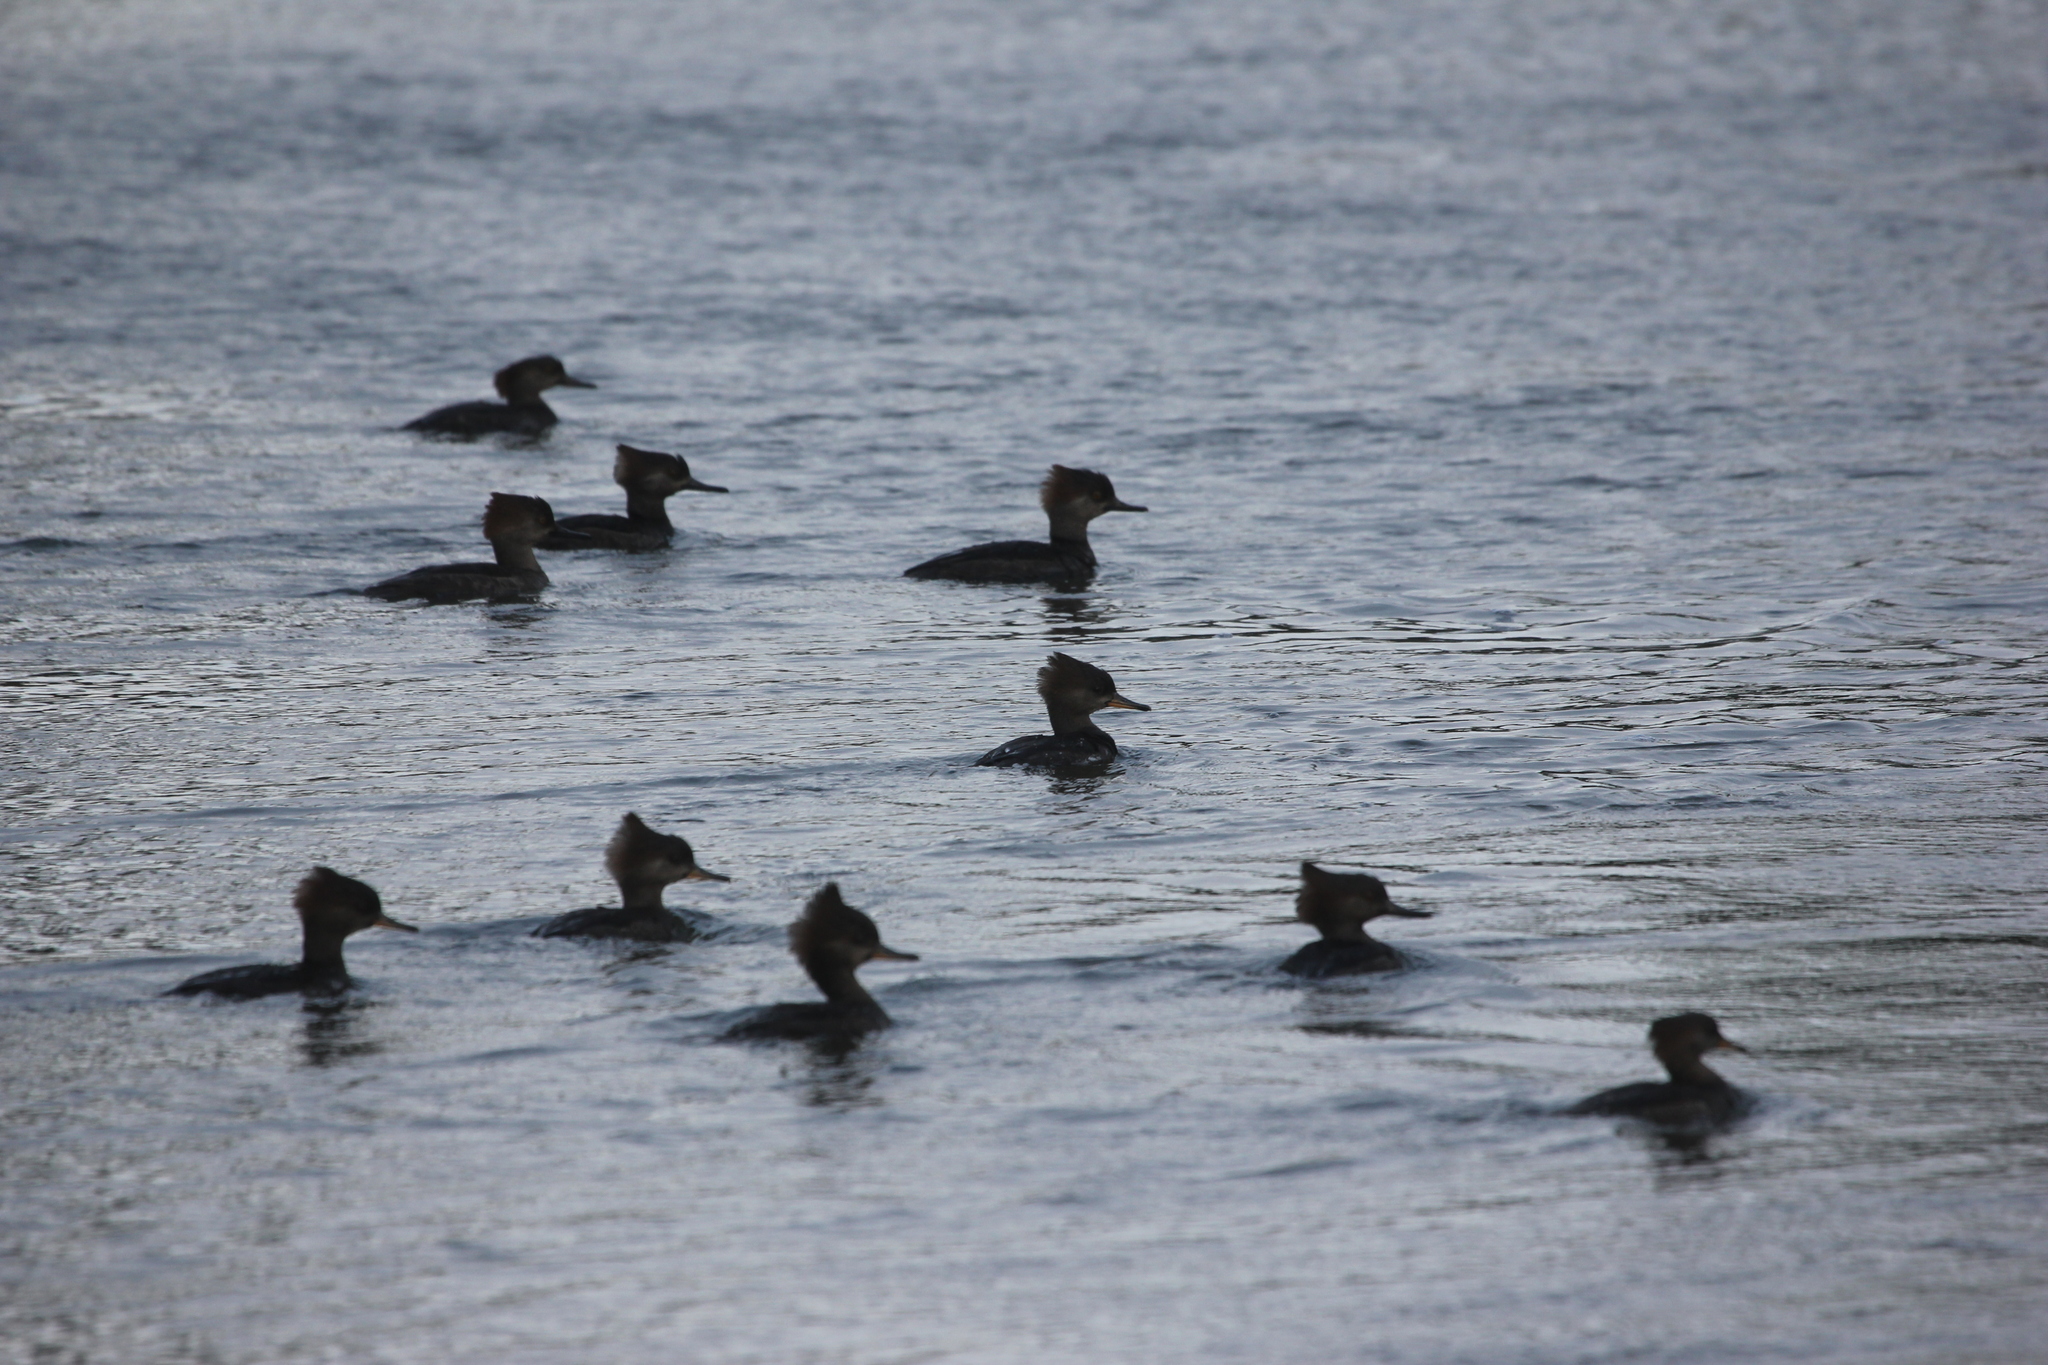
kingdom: Animalia
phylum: Chordata
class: Aves
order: Anseriformes
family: Anatidae
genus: Lophodytes
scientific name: Lophodytes cucullatus
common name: Hooded merganser
